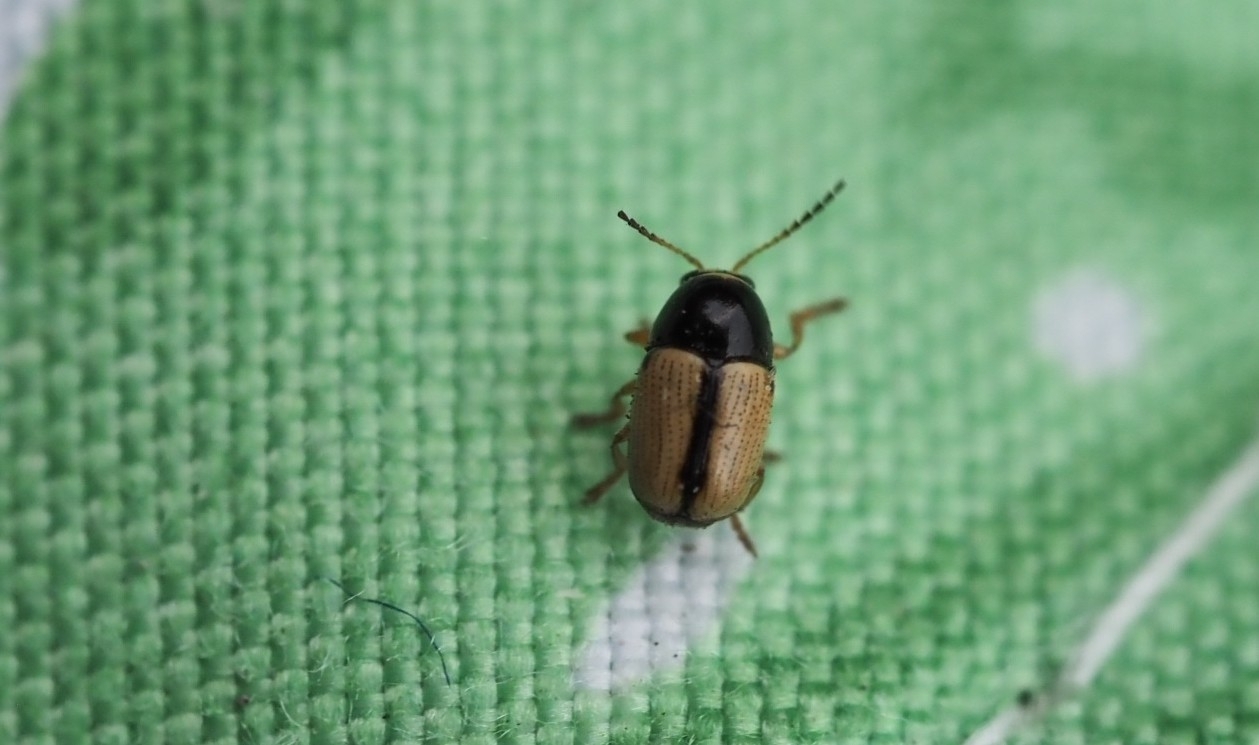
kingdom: Animalia
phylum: Arthropoda
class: Insecta
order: Coleoptera
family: Chrysomelidae
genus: Cryptocephalus
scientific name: Cryptocephalus pygmaeus
